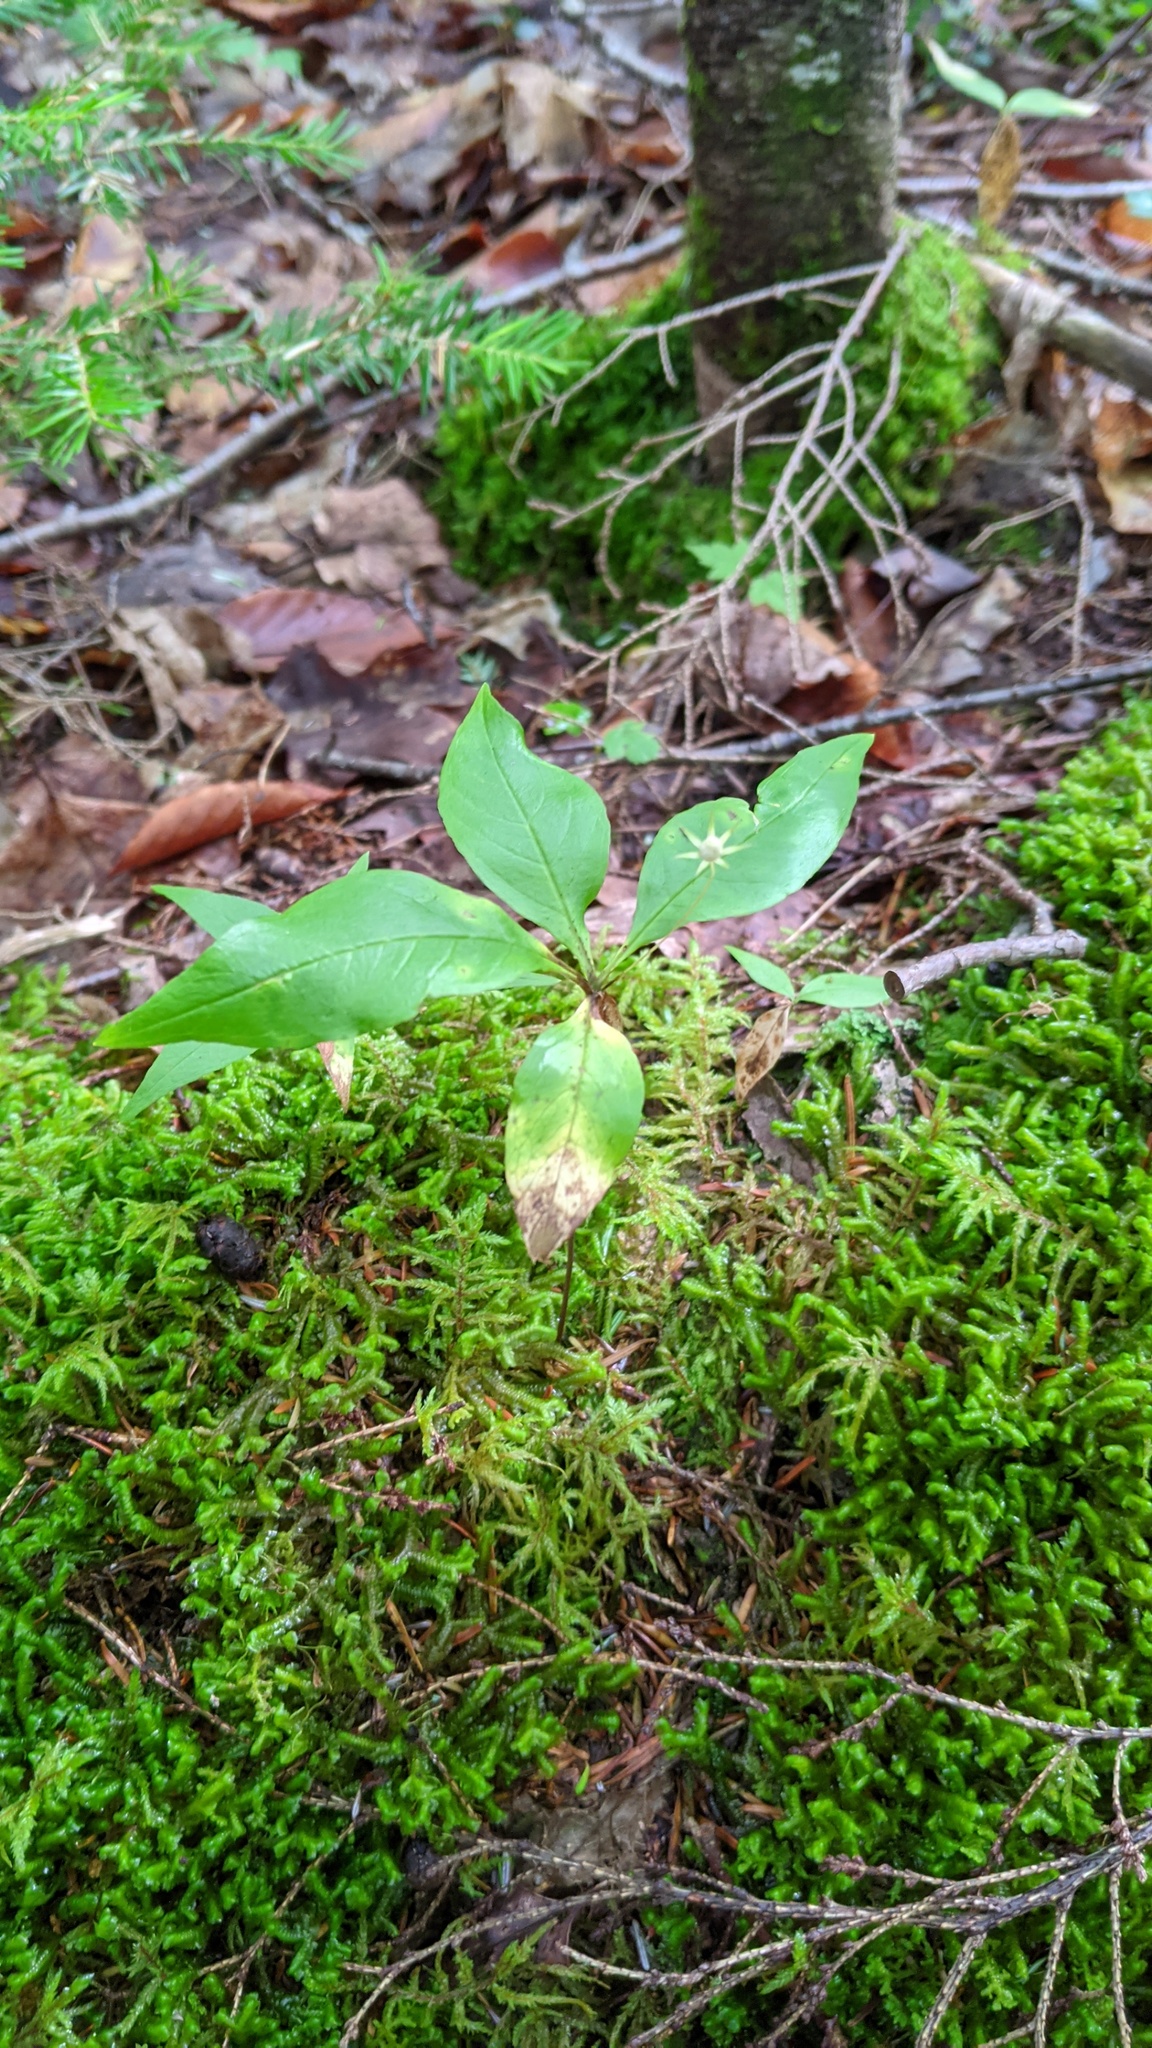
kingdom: Plantae
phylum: Tracheophyta
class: Magnoliopsida
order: Ericales
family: Primulaceae
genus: Lysimachia
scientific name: Lysimachia borealis
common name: American starflower
